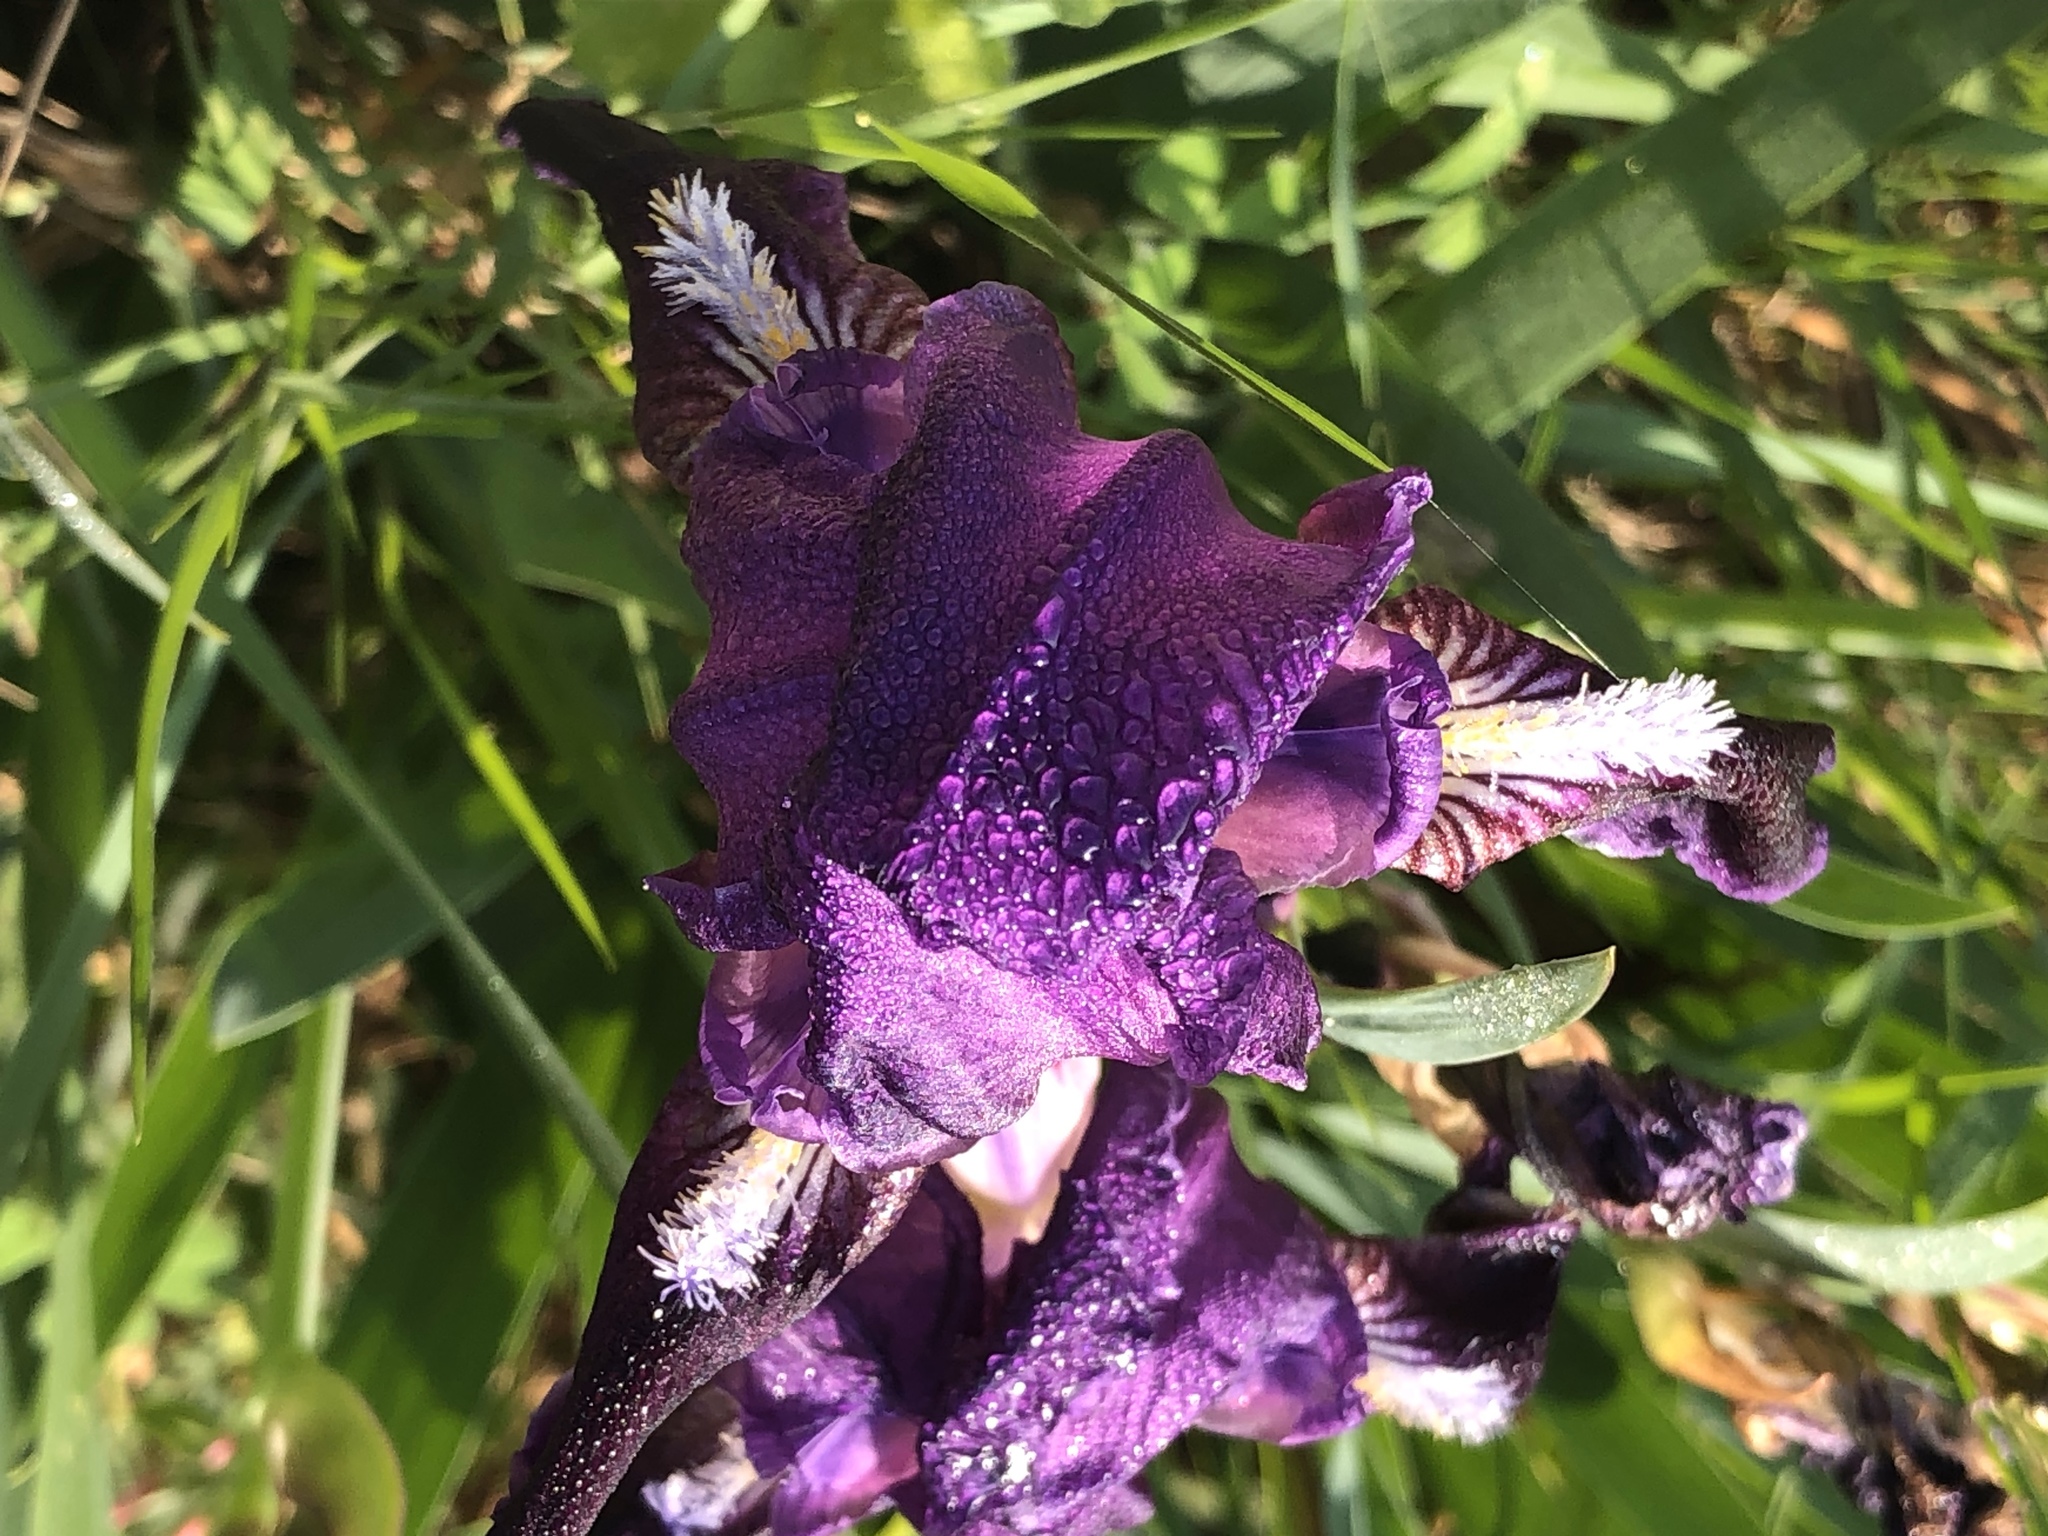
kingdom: Plantae
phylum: Tracheophyta
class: Liliopsida
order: Asparagales
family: Iridaceae
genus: Iris
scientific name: Iris lutescens
